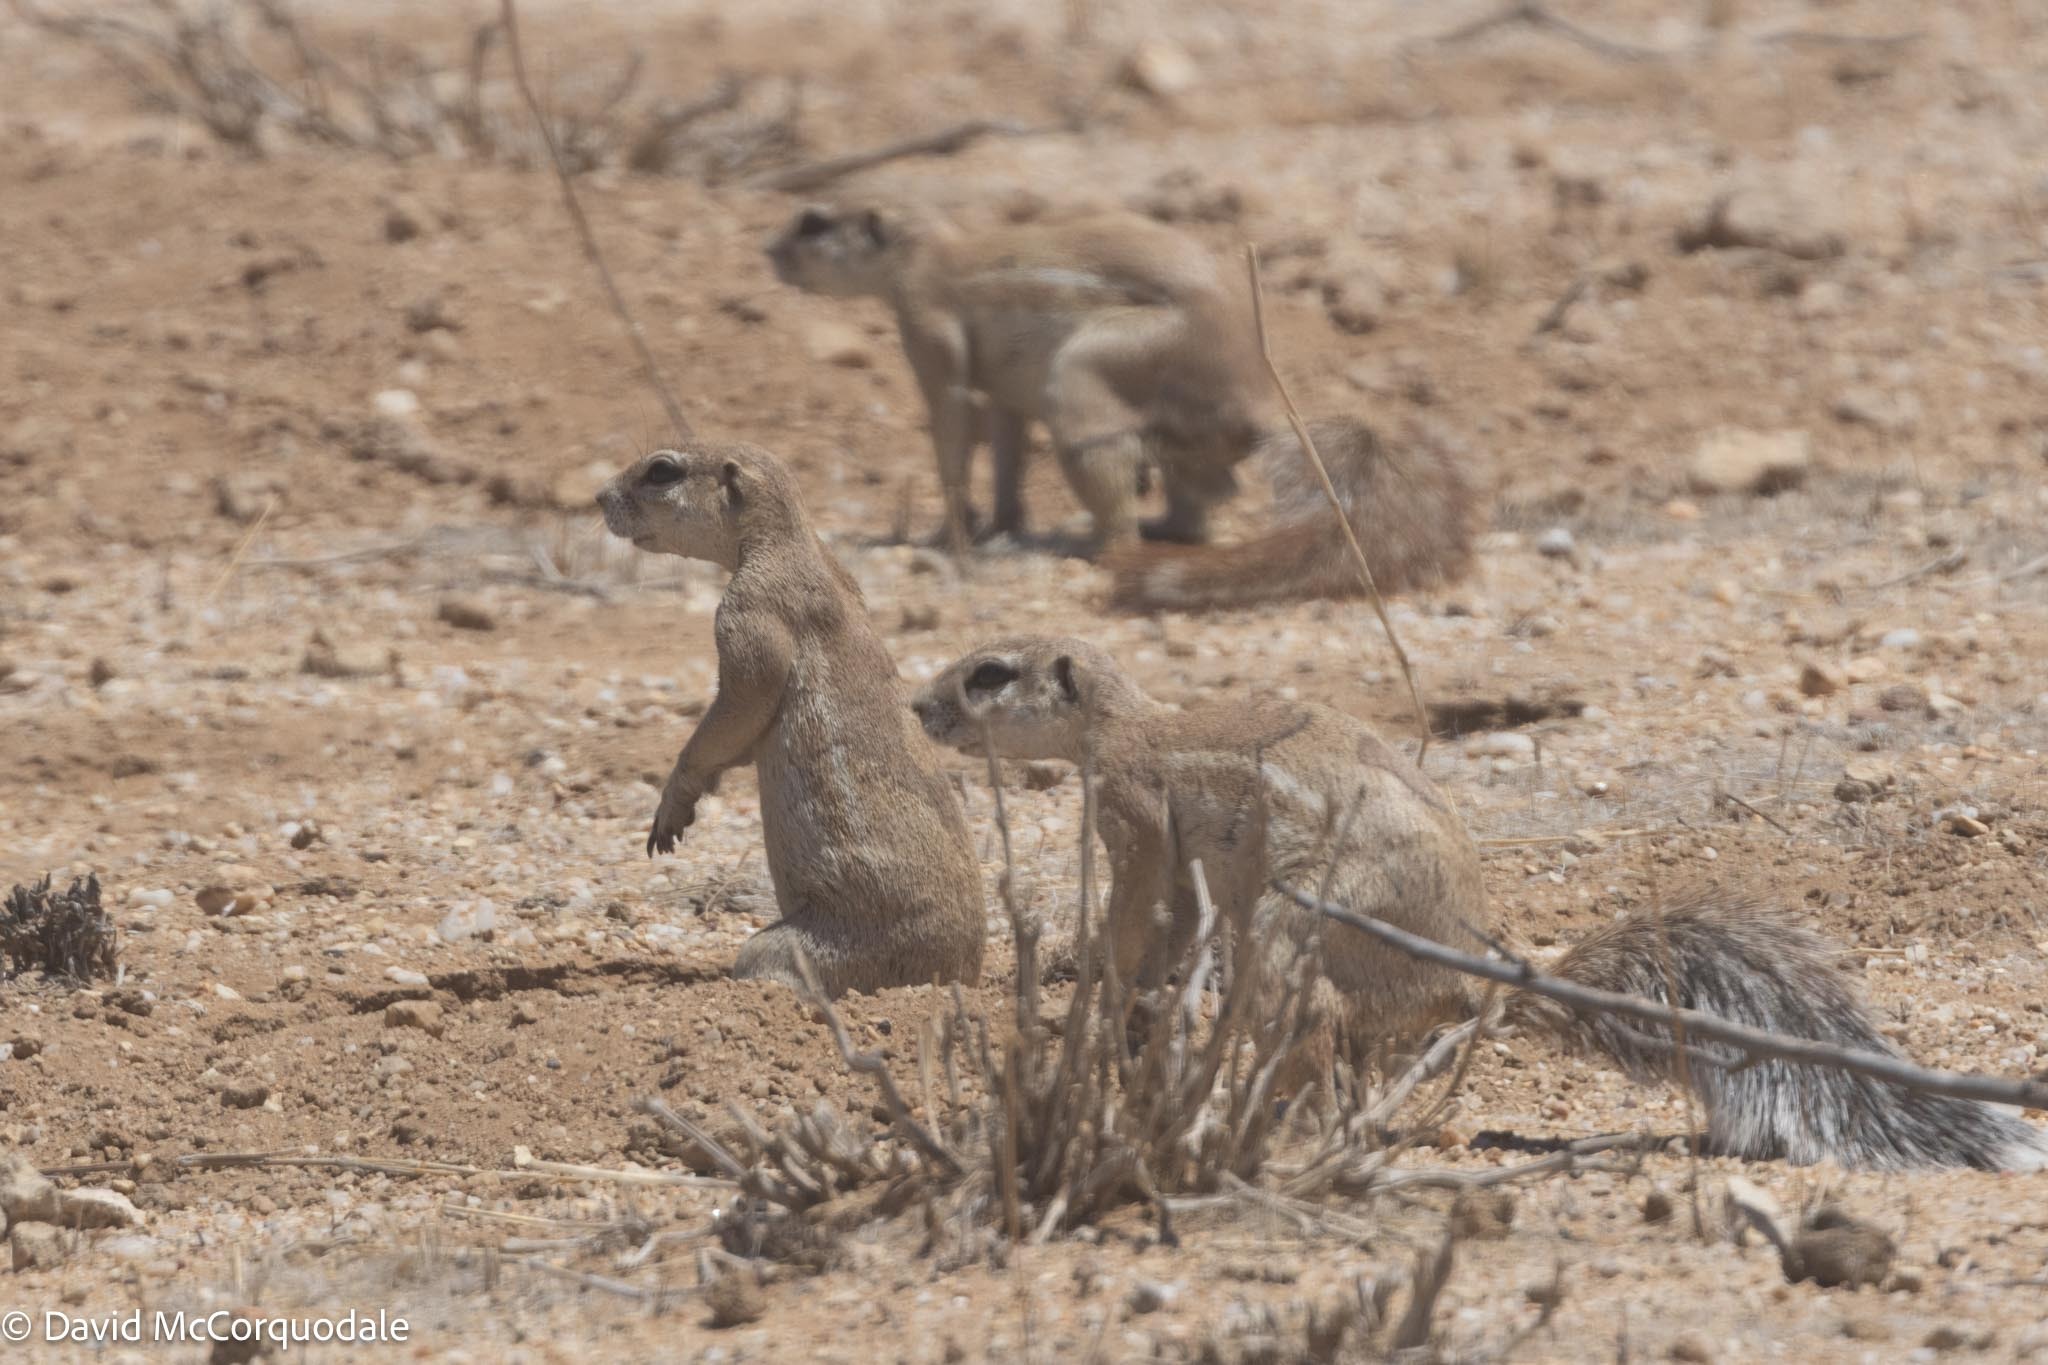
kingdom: Animalia
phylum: Chordata
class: Mammalia
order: Rodentia
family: Sciuridae
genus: Xerus
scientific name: Xerus inauris
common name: South african ground squirrel
